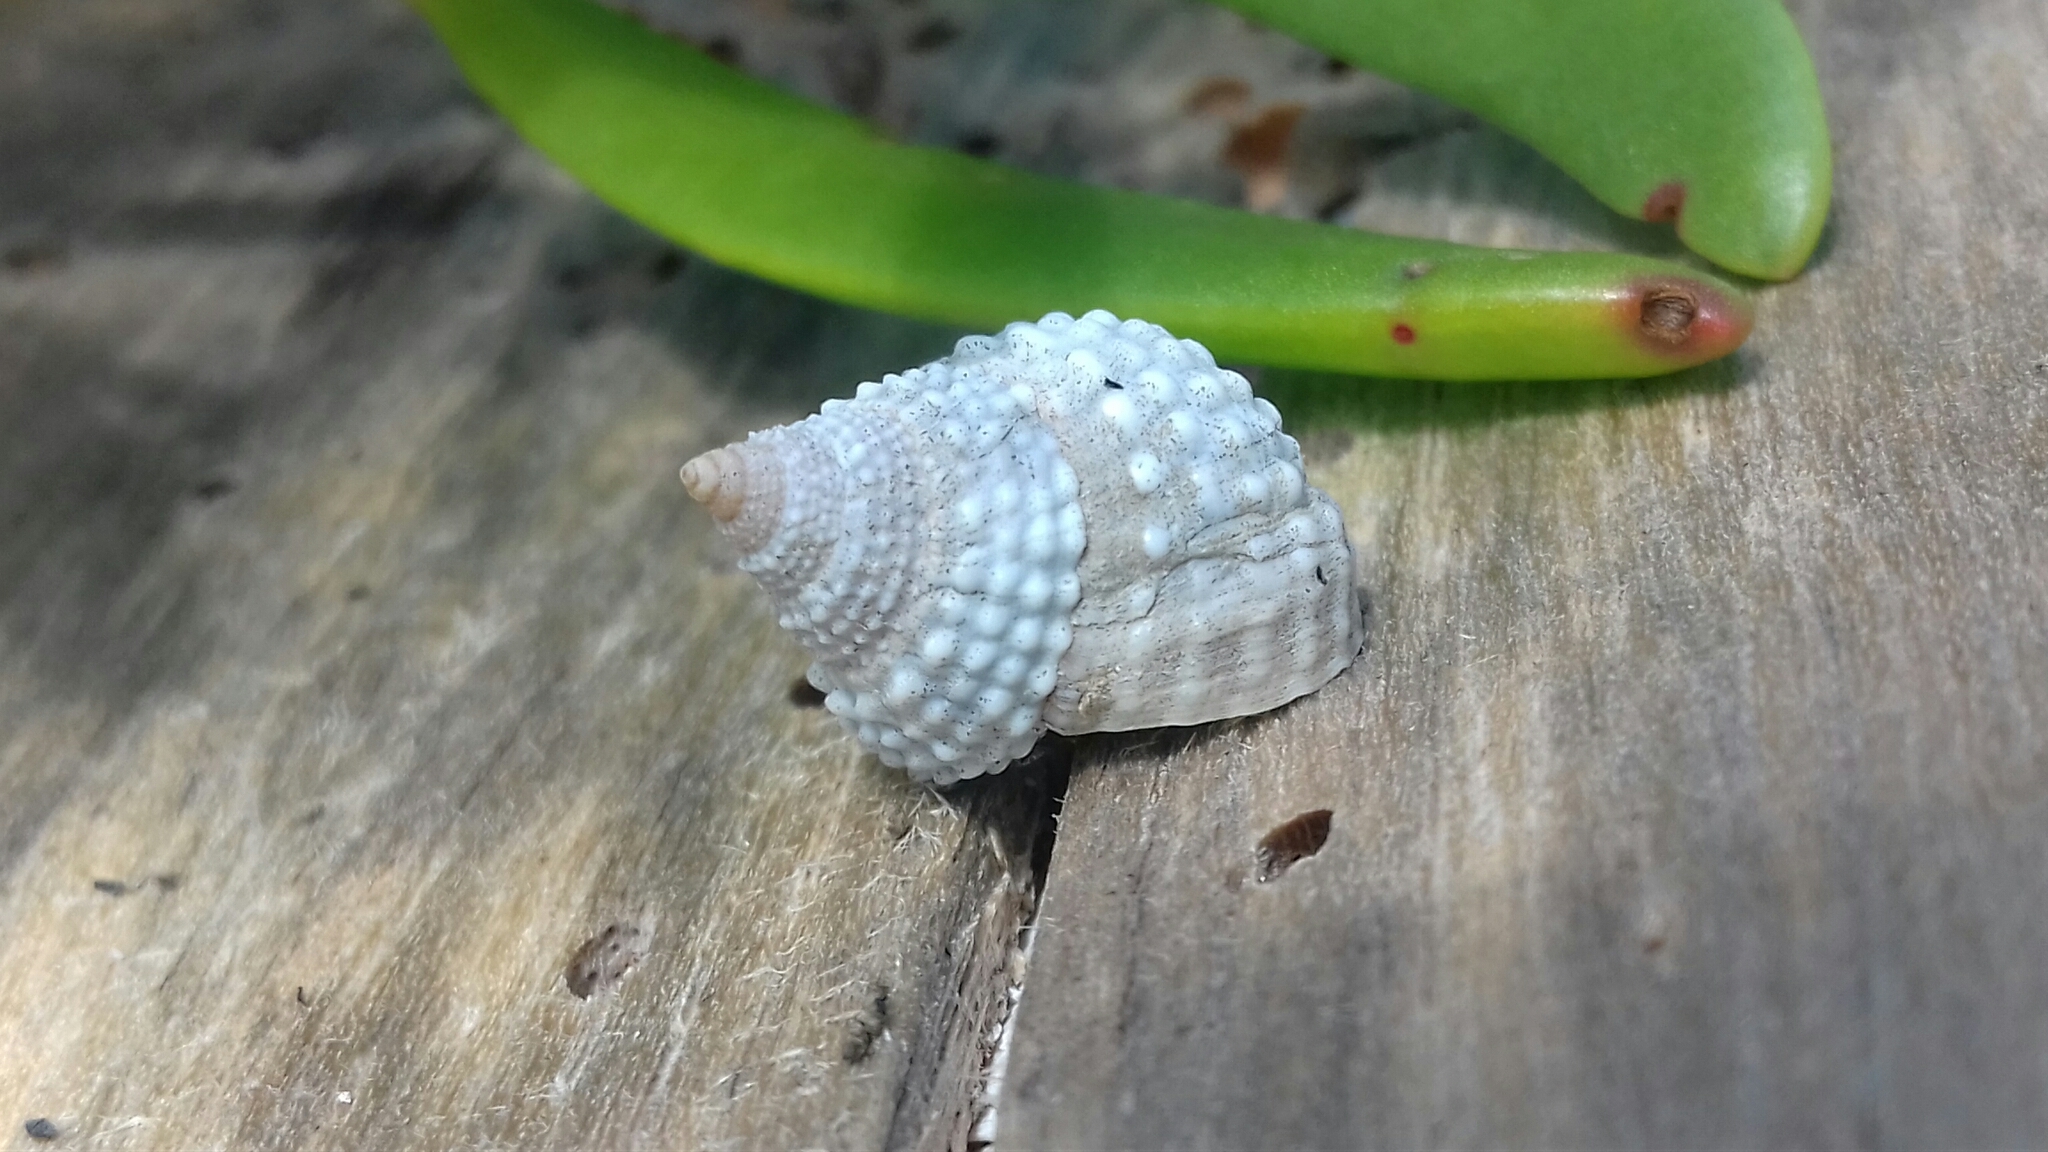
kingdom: Animalia
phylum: Mollusca
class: Gastropoda
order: Littorinimorpha
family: Littorinidae
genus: Cenchritis
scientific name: Cenchritis muricatus
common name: Beaded periwinkle
